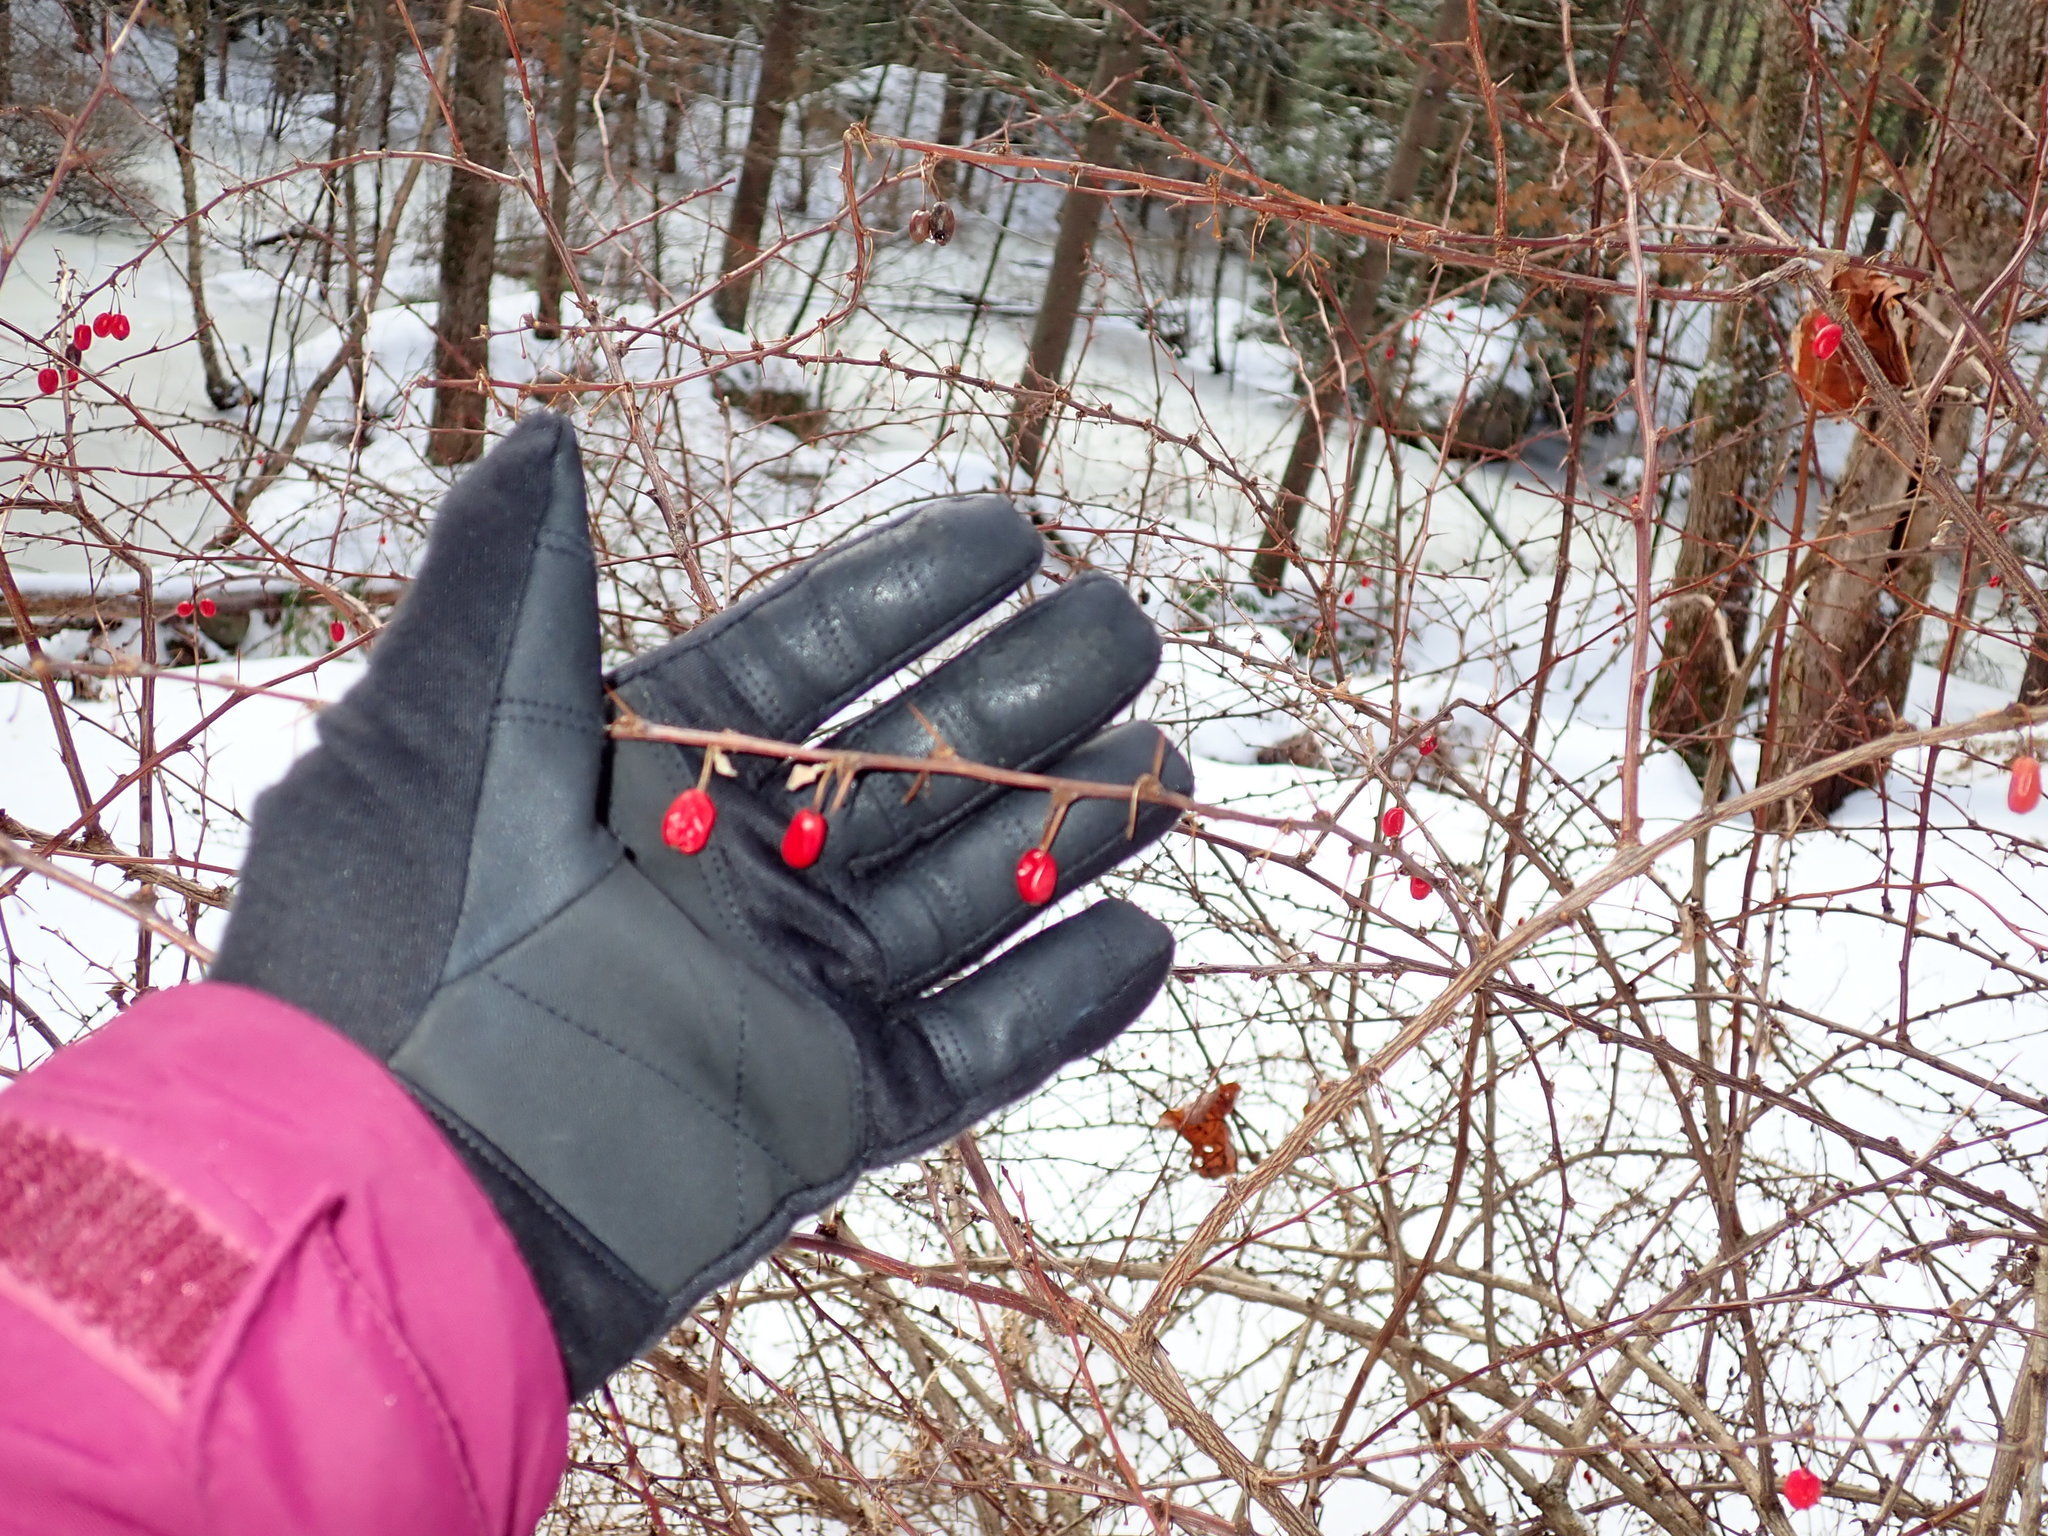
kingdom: Plantae
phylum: Tracheophyta
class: Magnoliopsida
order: Ranunculales
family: Berberidaceae
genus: Berberis
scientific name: Berberis thunbergii
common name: Japanese barberry
